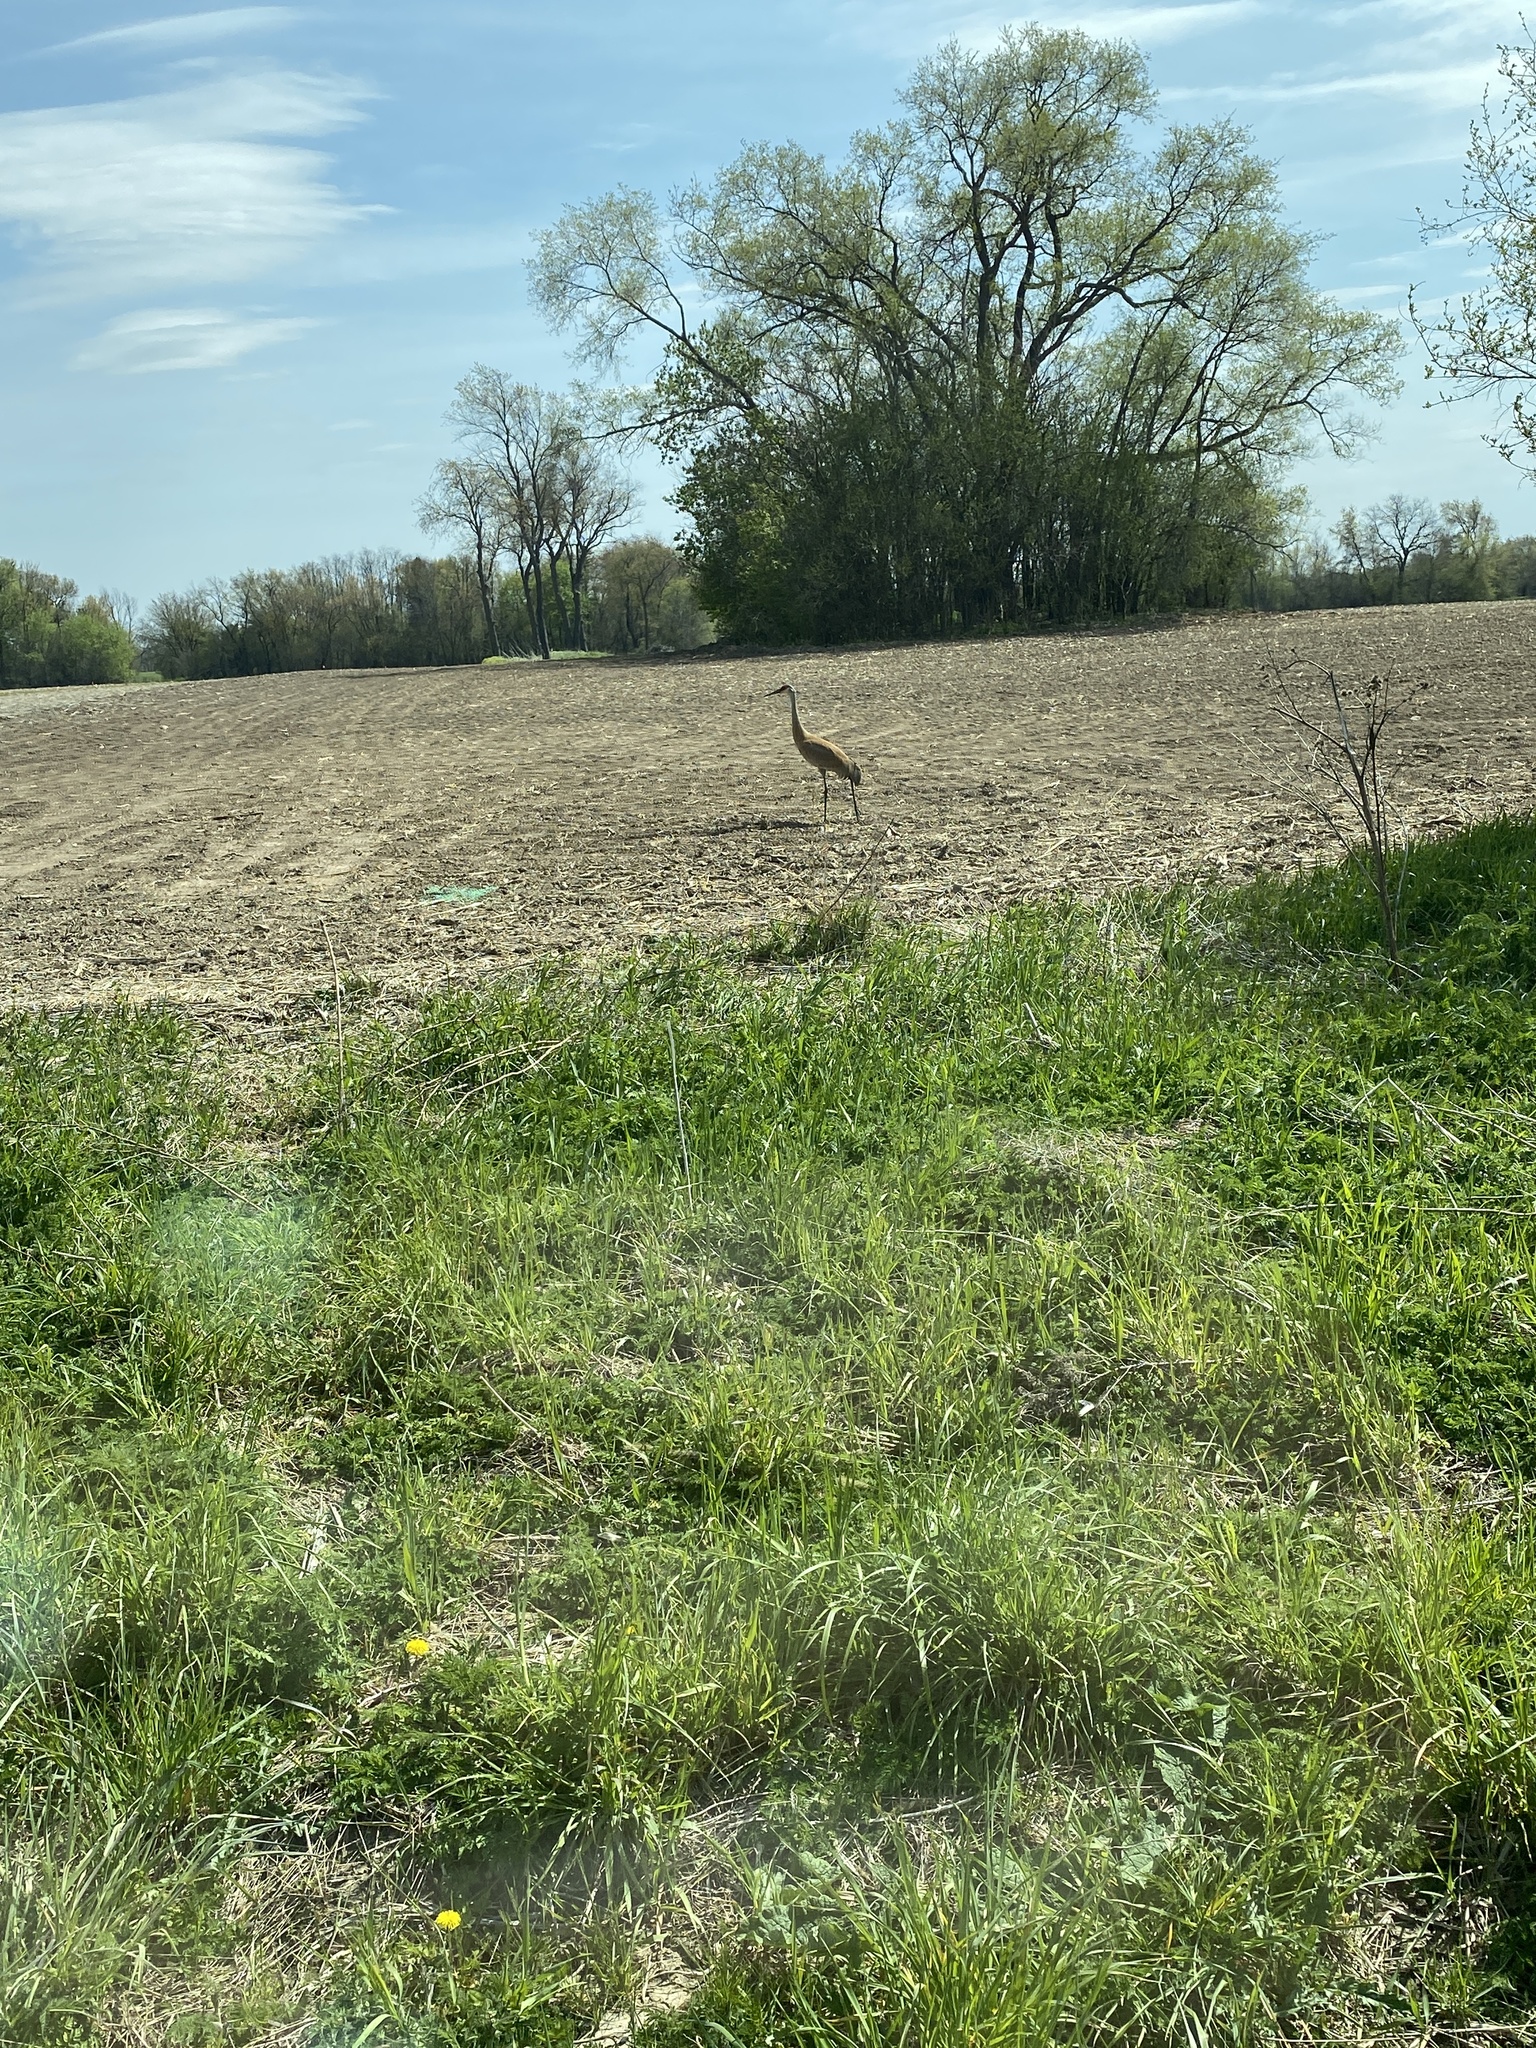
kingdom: Animalia
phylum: Chordata
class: Aves
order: Gruiformes
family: Gruidae
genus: Grus
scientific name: Grus canadensis
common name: Sandhill crane
